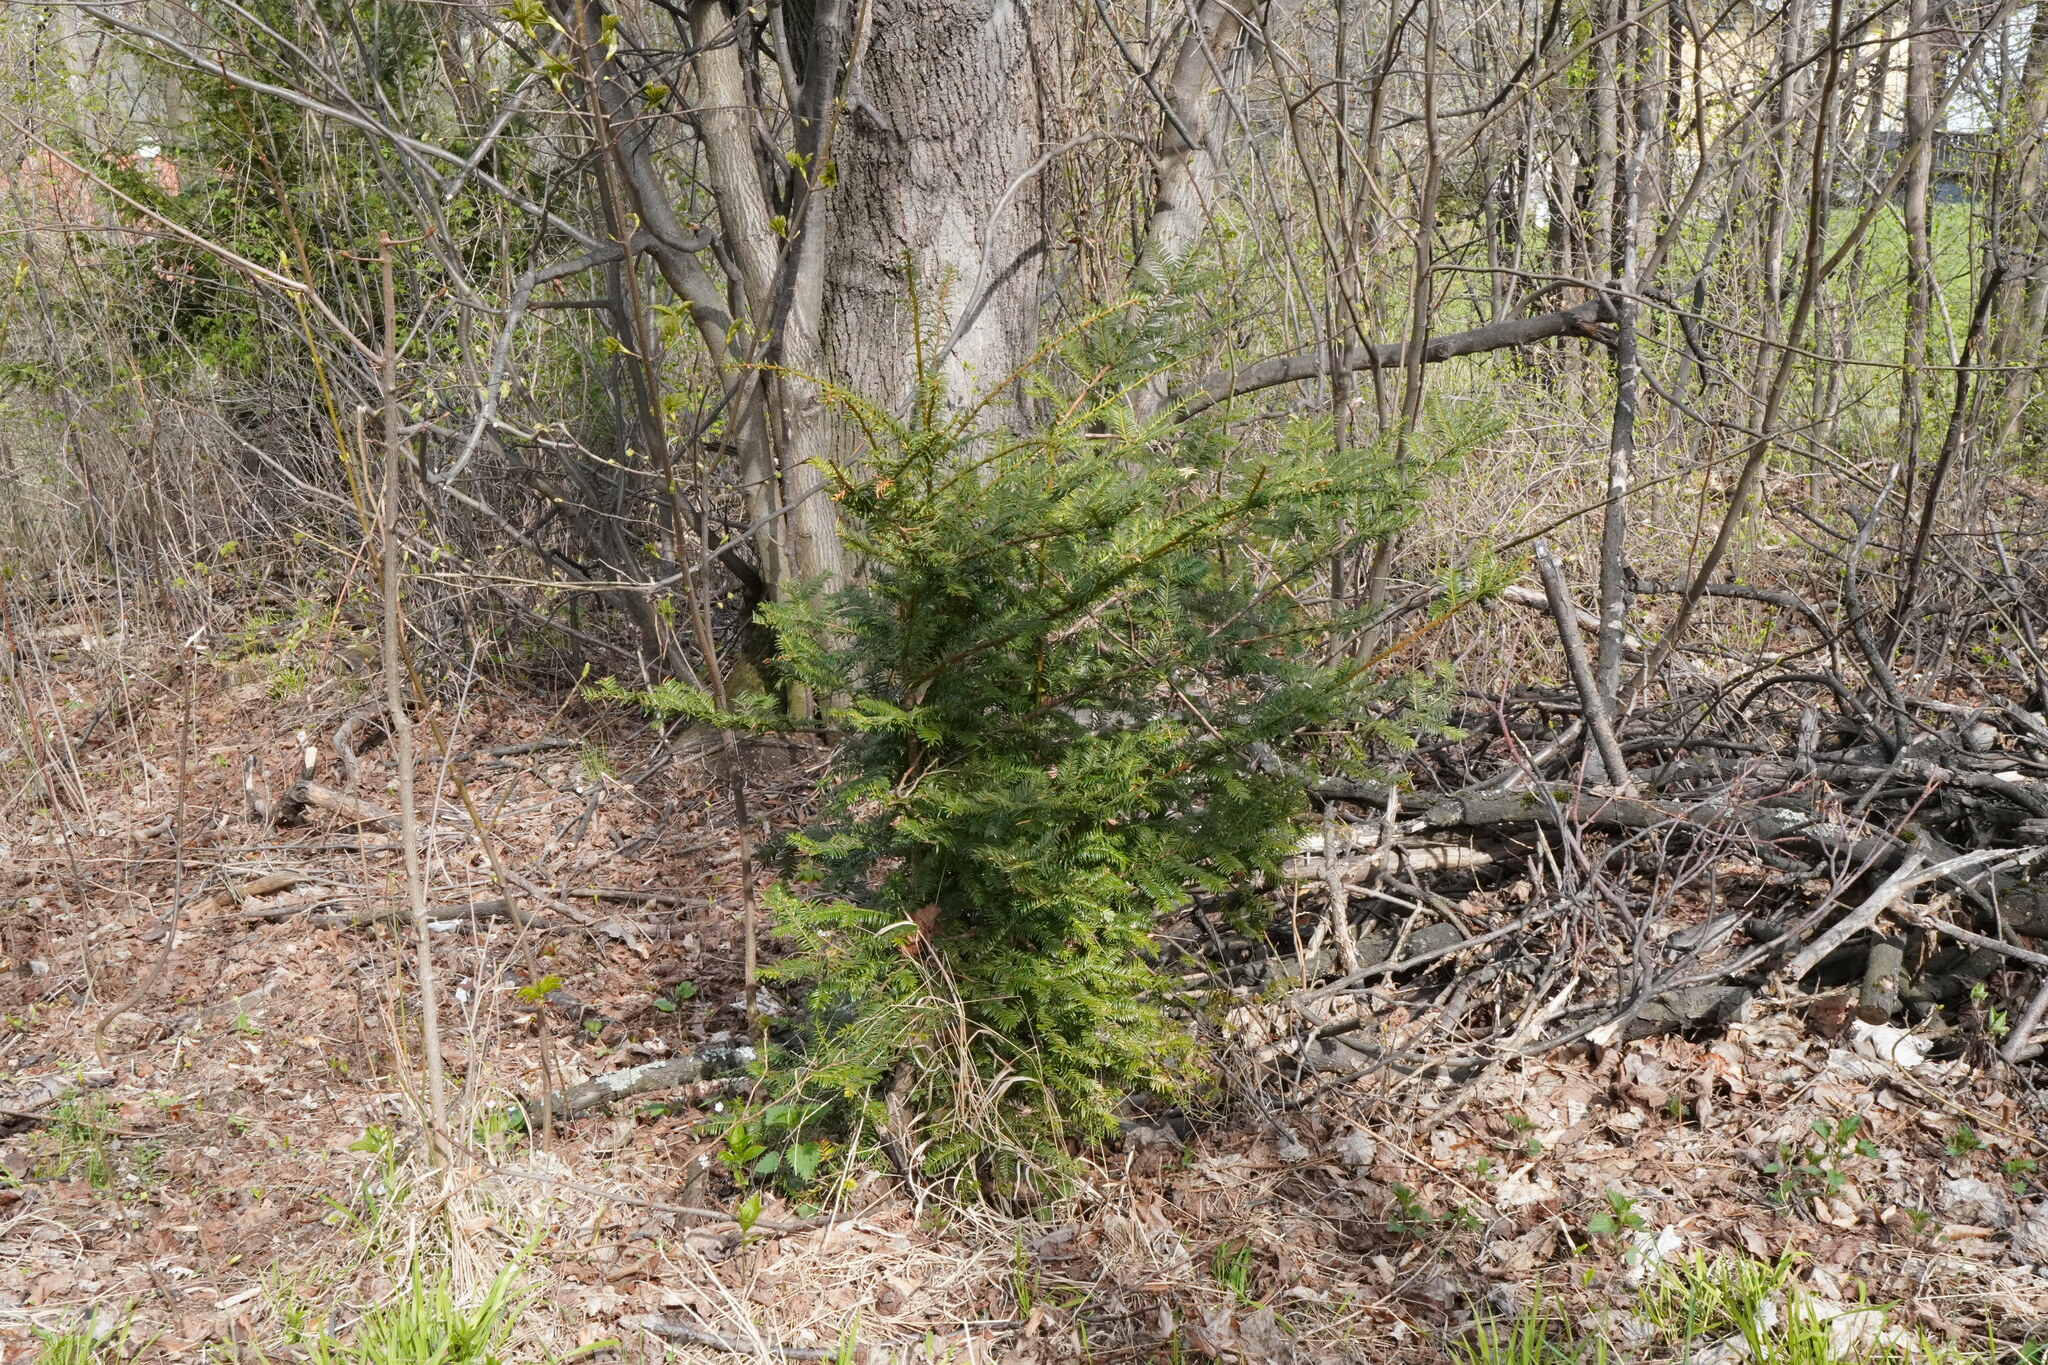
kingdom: Plantae
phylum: Tracheophyta
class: Pinopsida
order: Pinales
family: Taxaceae
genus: Taxus
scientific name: Taxus media
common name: Hybrid yew
